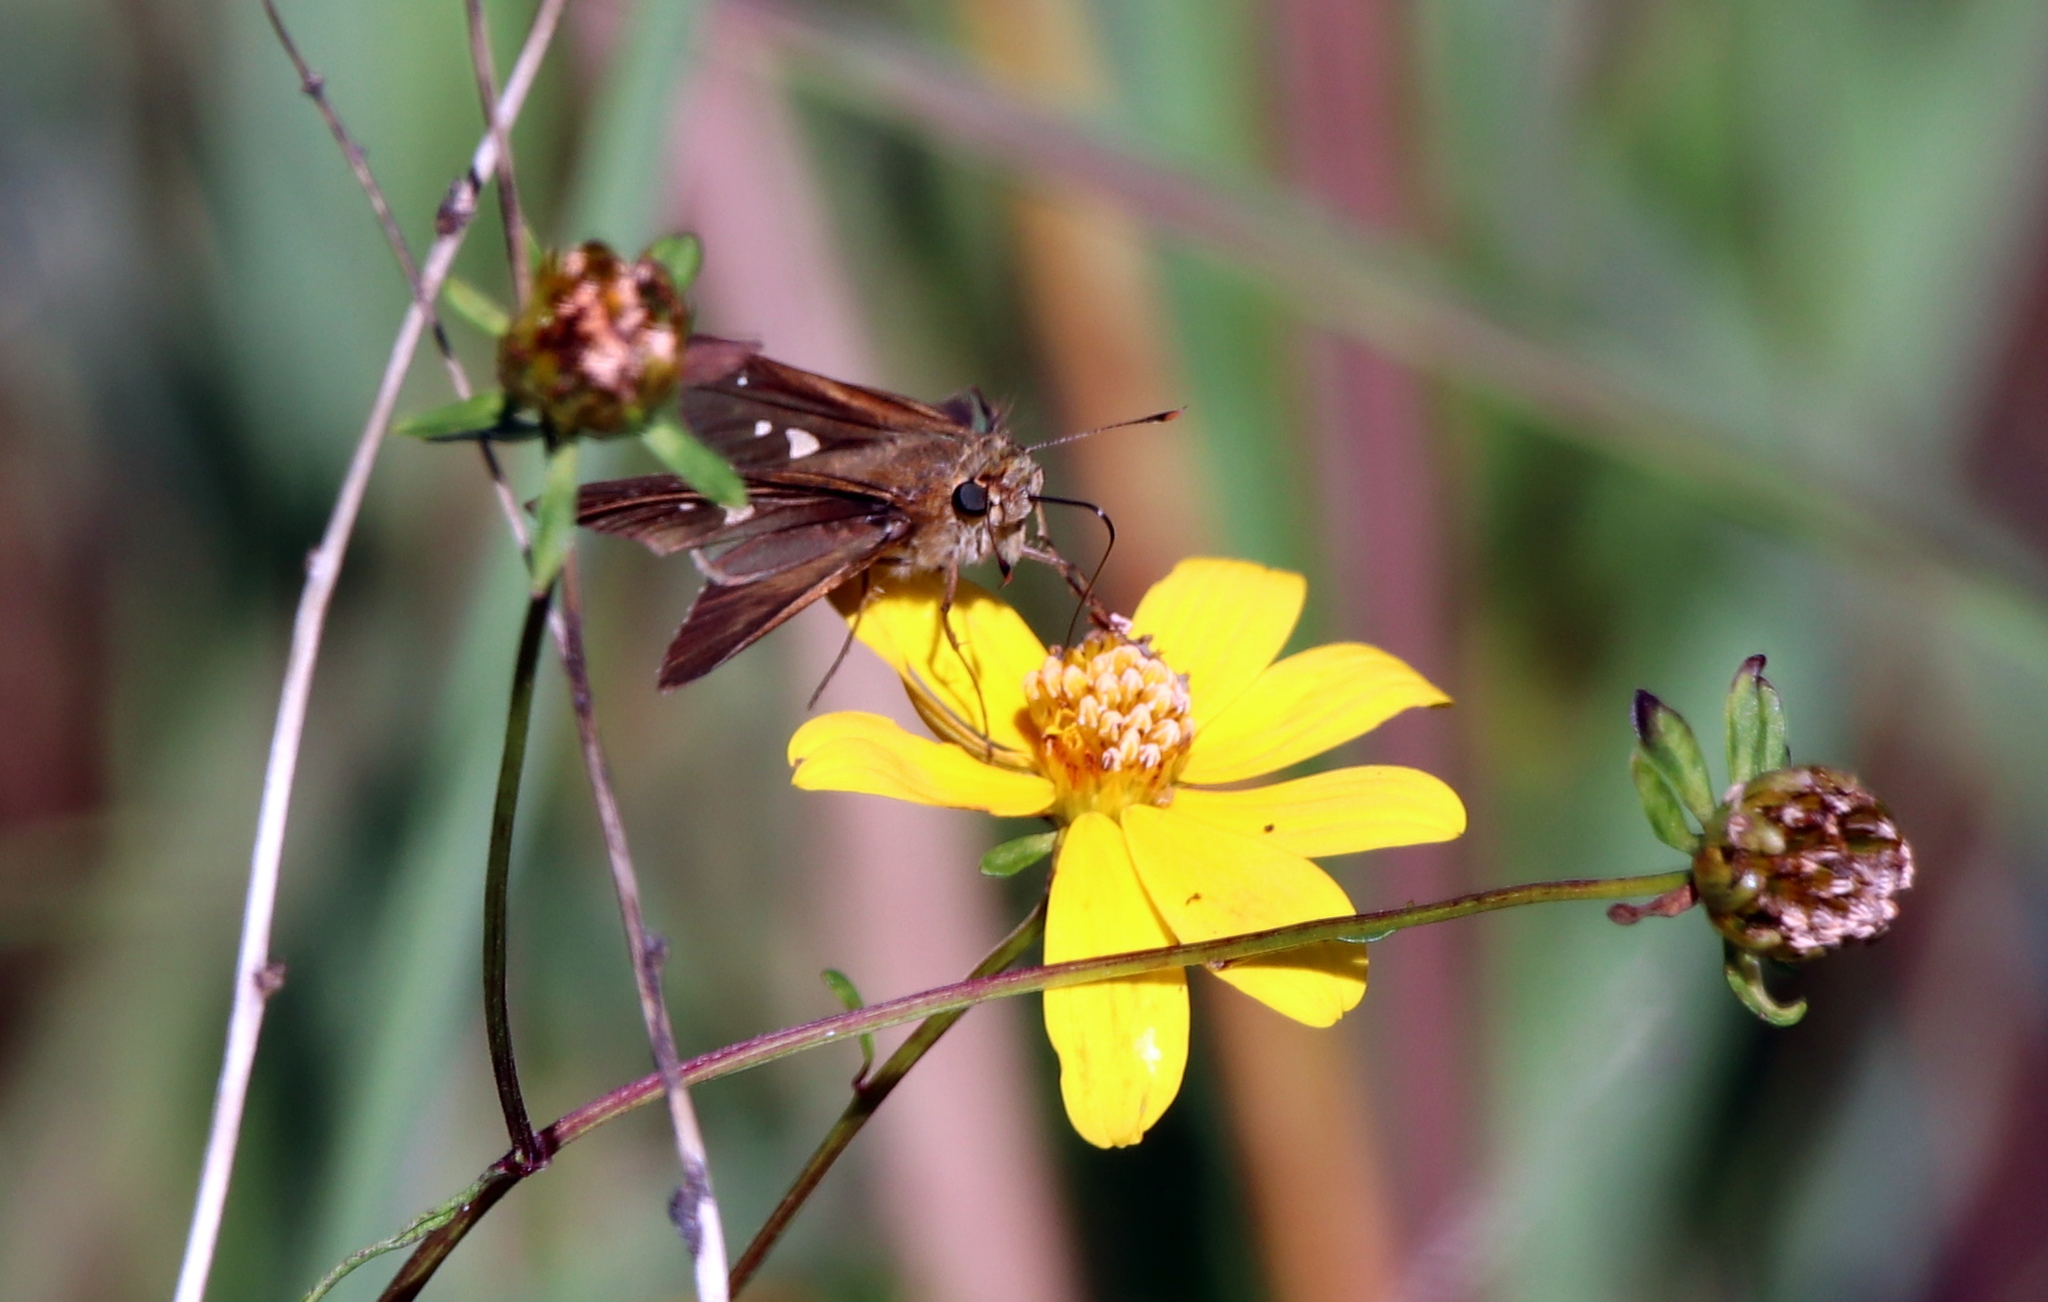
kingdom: Animalia
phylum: Arthropoda
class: Insecta
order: Lepidoptera
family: Hesperiidae
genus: Lerema
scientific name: Lerema accius
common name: Clouded skipper
